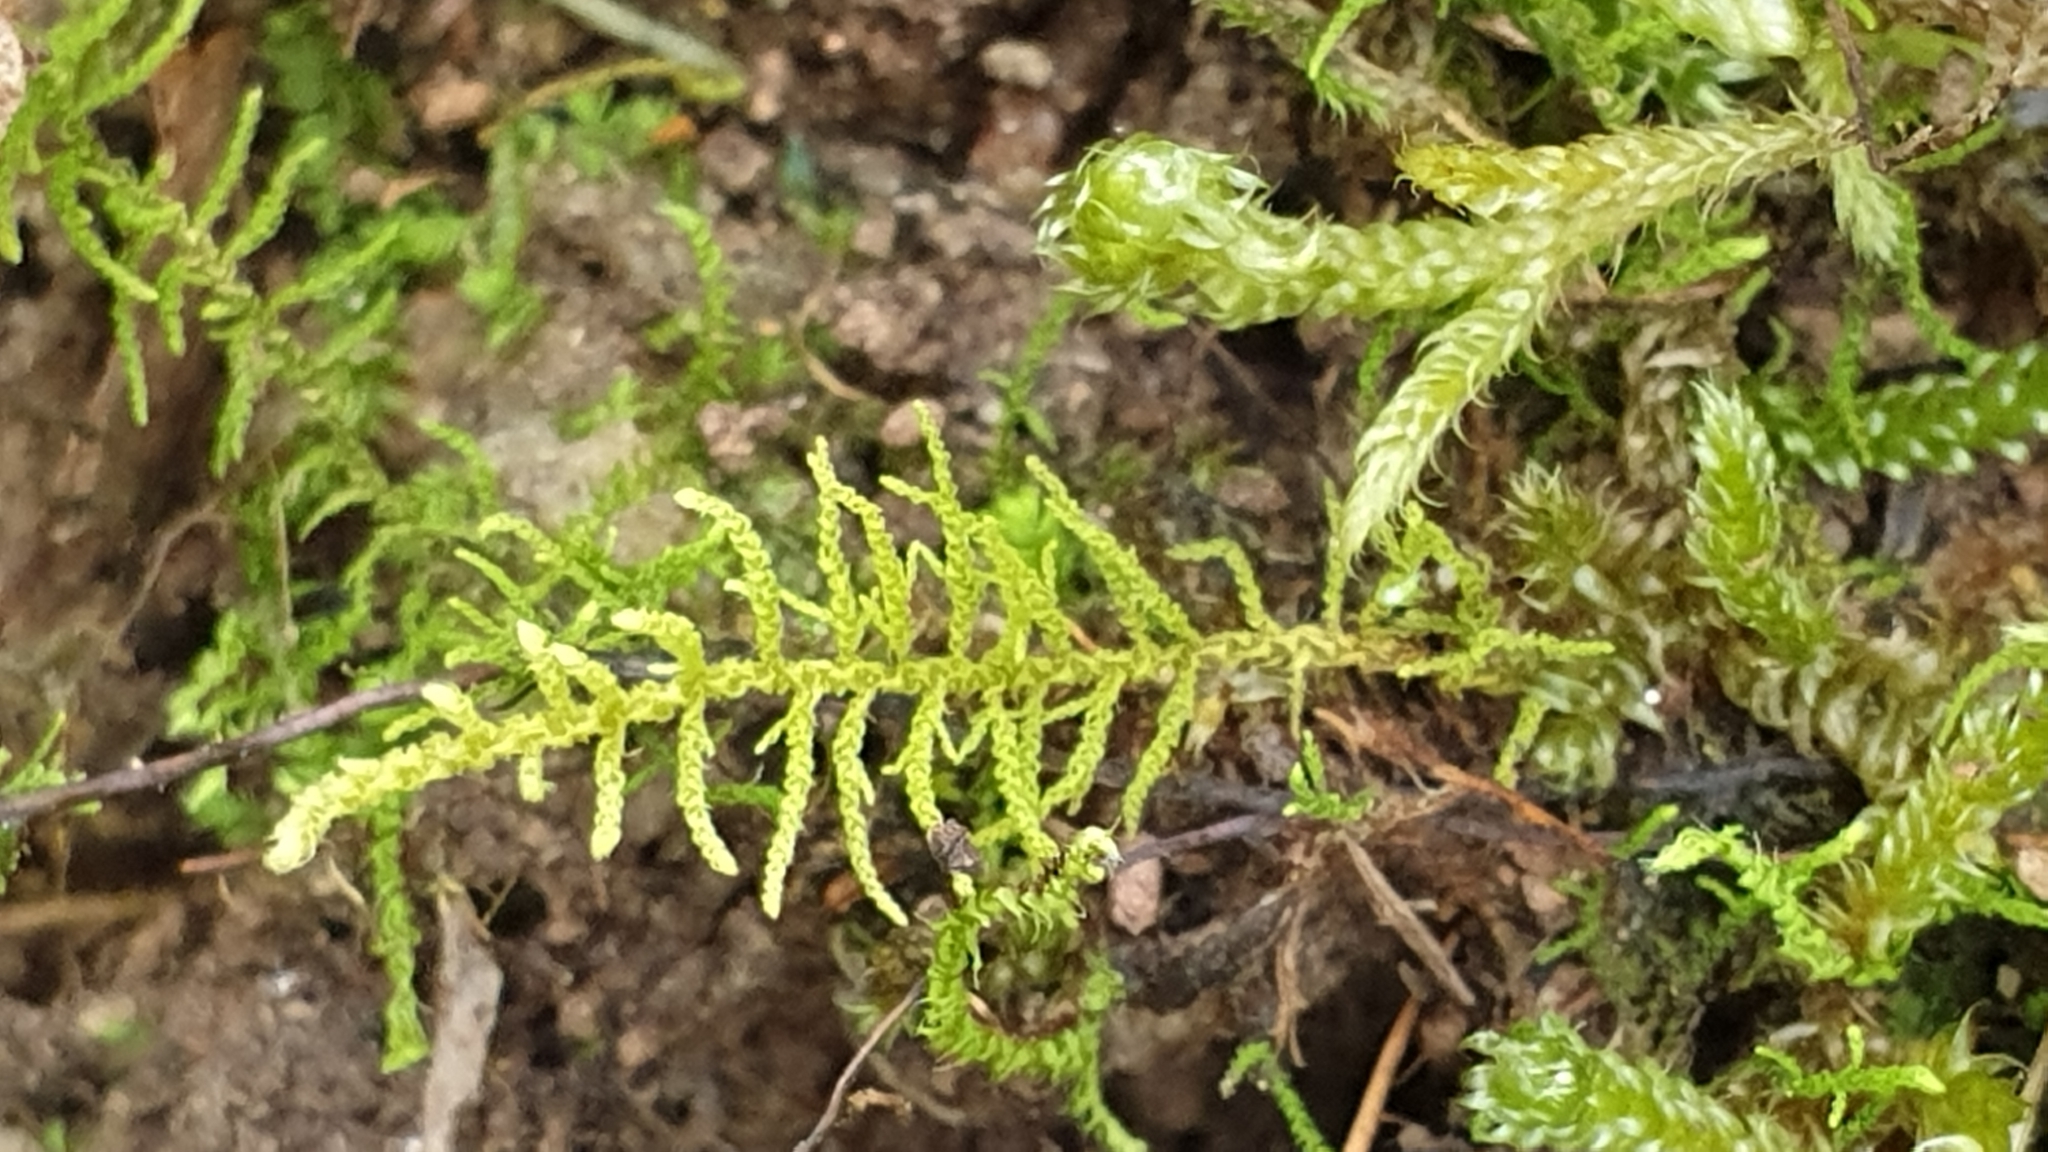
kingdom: Plantae
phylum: Bryophyta
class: Bryopsida
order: Hypnales
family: Thuidiaceae
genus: Thuidiopsis
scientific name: Thuidiopsis sparsa
